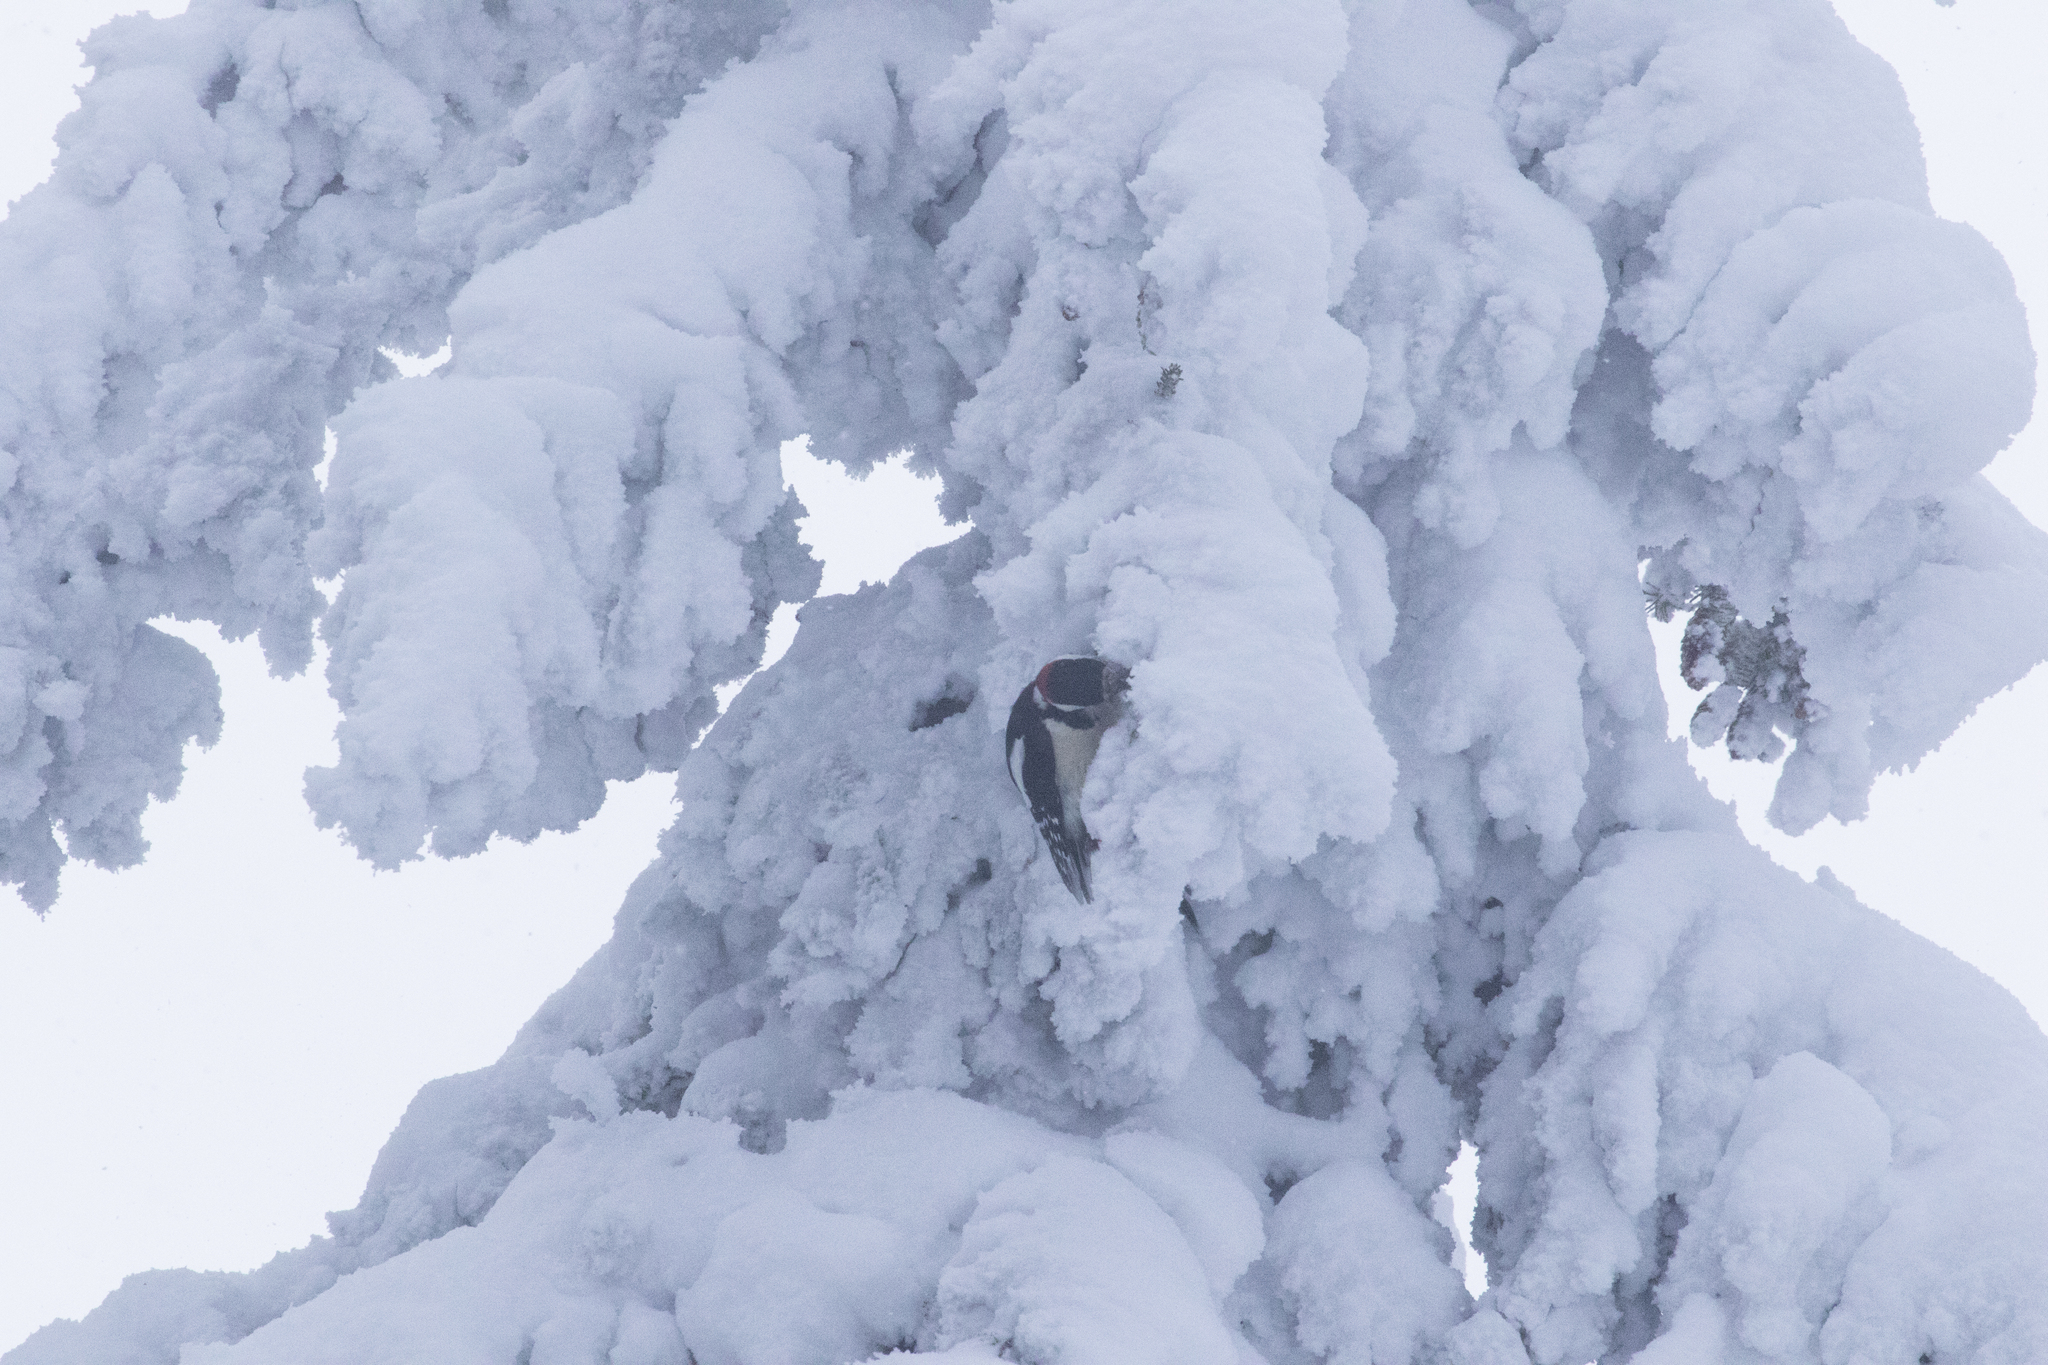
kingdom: Animalia
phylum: Chordata
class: Aves
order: Piciformes
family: Picidae
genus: Dendrocopos
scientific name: Dendrocopos major
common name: Great spotted woodpecker
